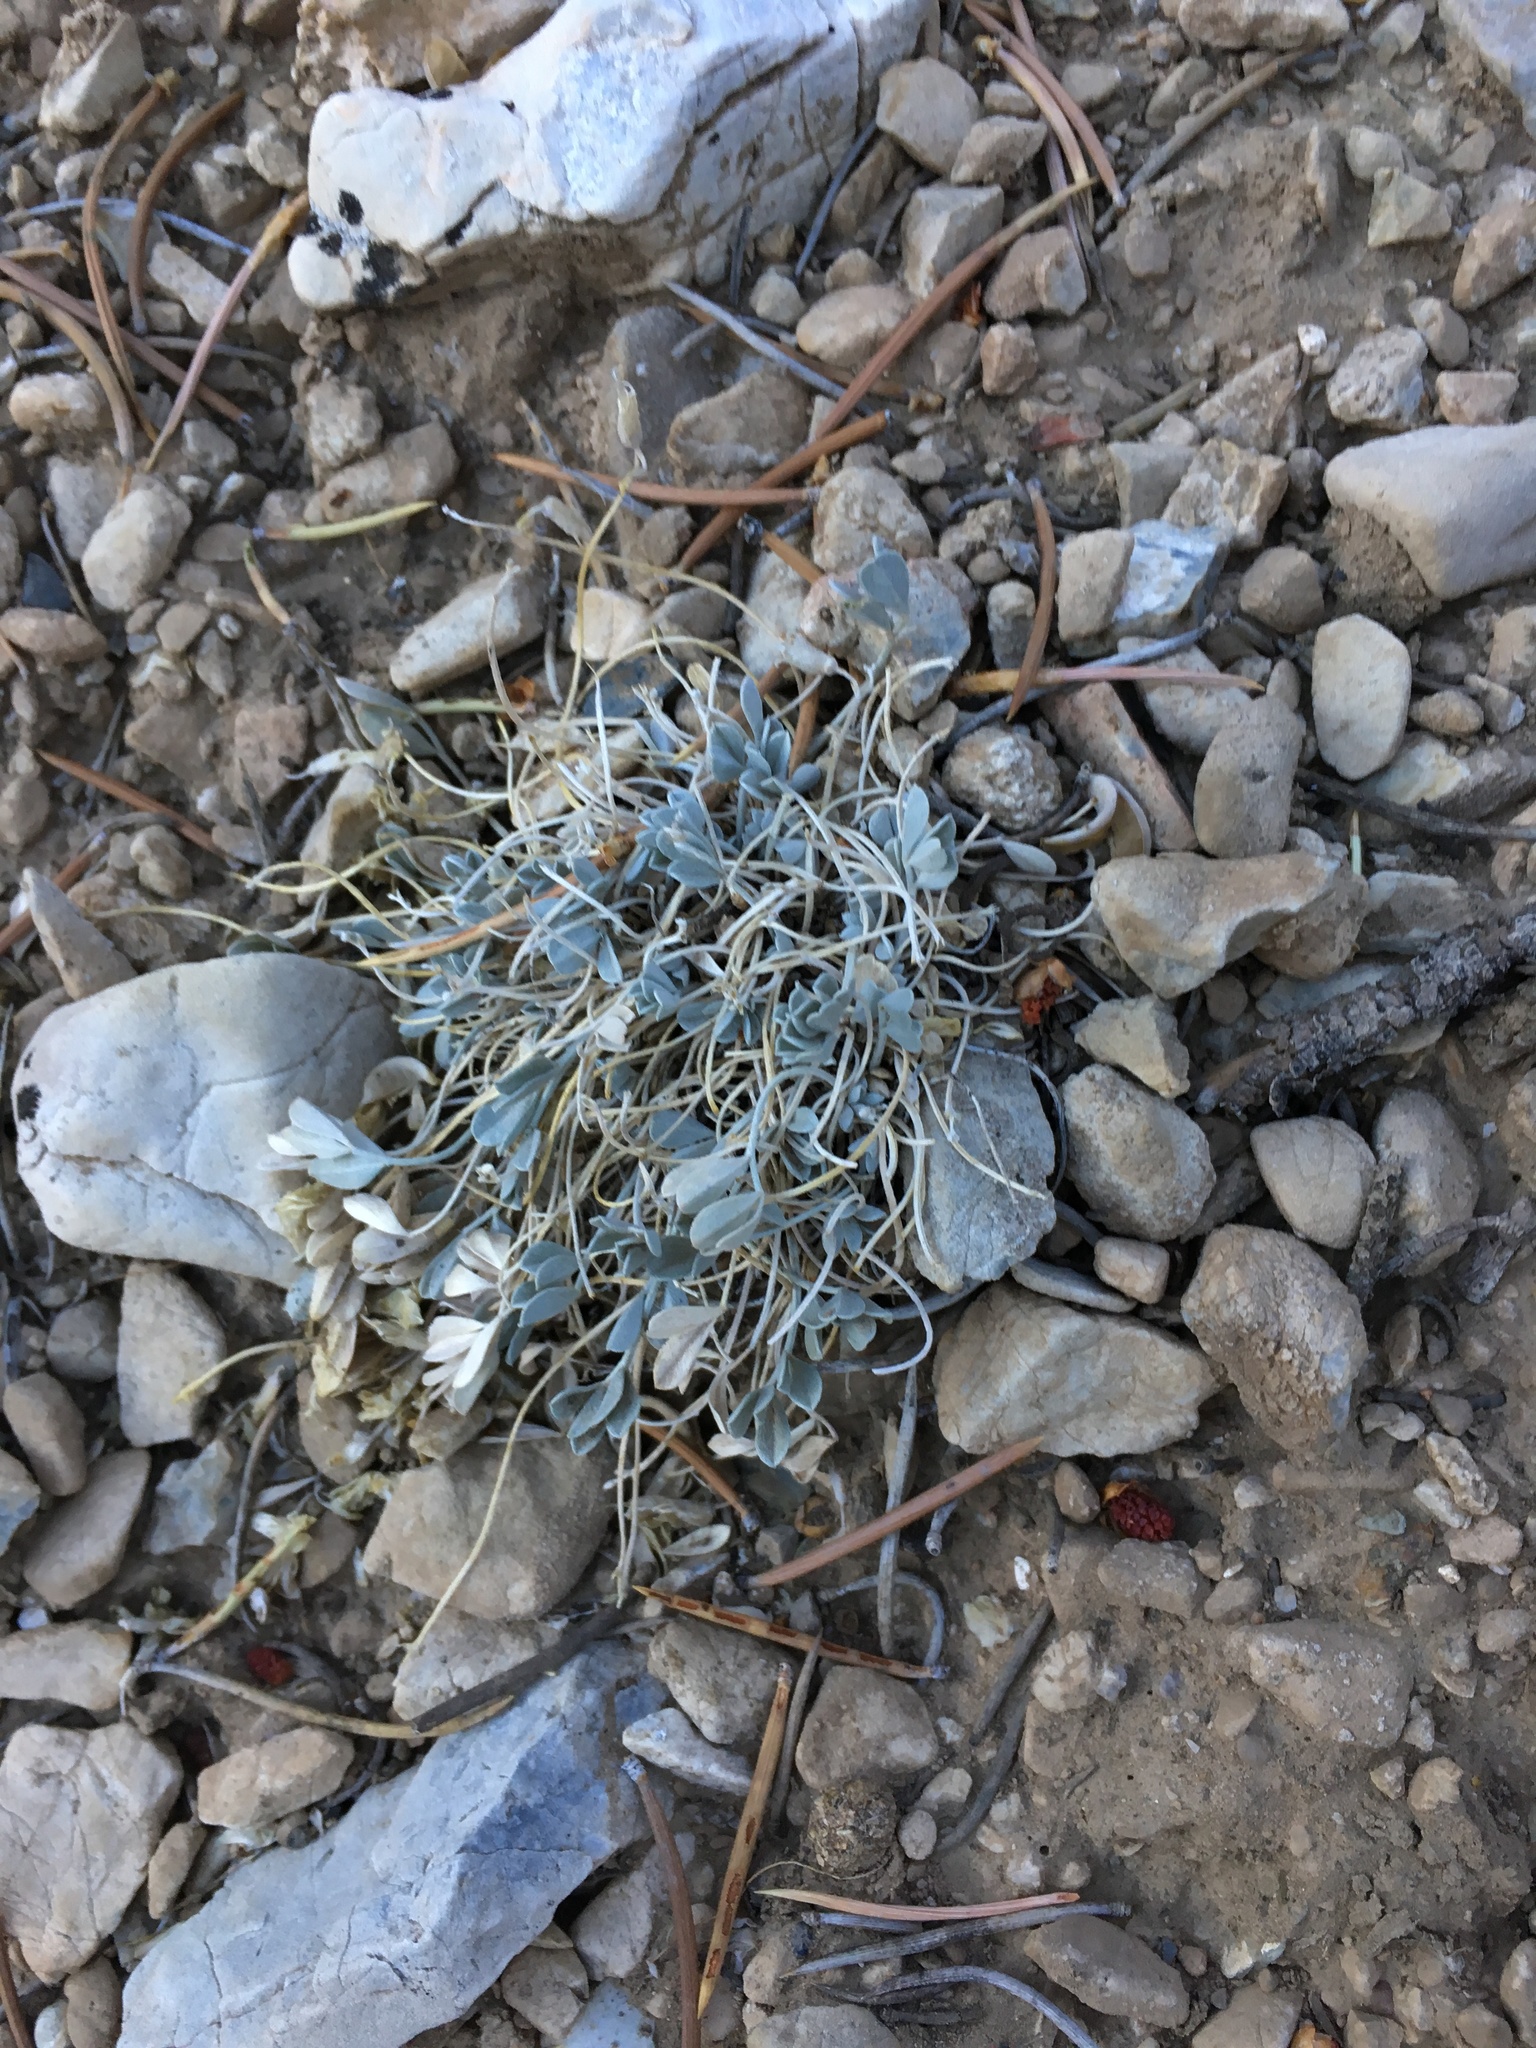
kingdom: Plantae
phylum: Tracheophyta
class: Magnoliopsida
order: Fabales
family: Fabaceae
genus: Astragalus
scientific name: Astragalus calycosus
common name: King's milkvetch
